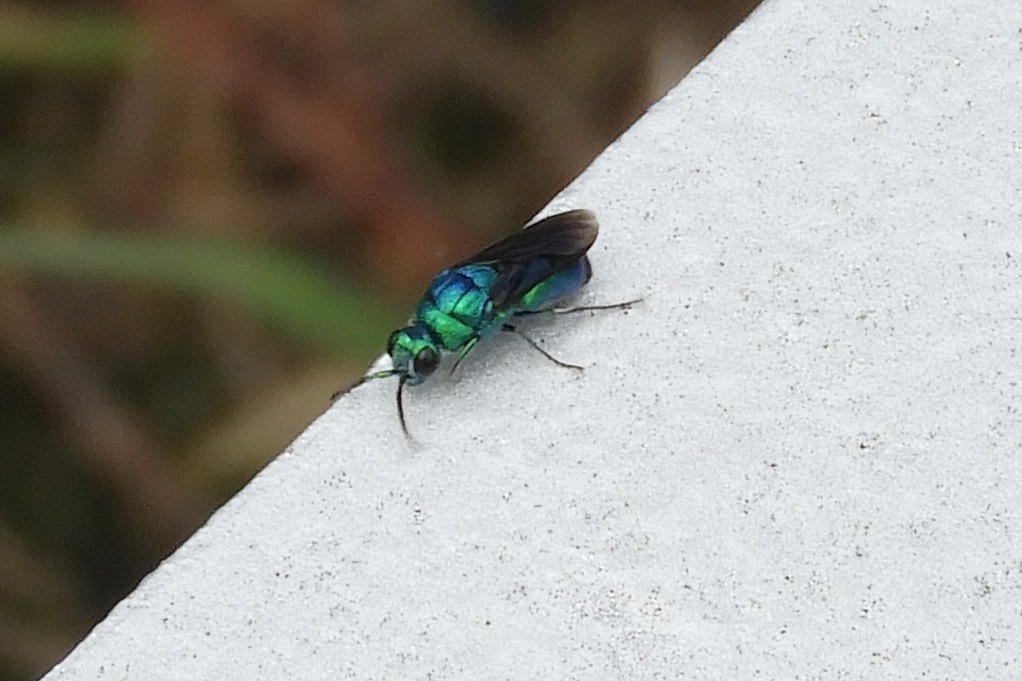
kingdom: Animalia
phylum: Arthropoda
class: Insecta
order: Hymenoptera
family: Chrysididae
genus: Chrysis
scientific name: Chrysis angolensis
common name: Cuckoo wasp
